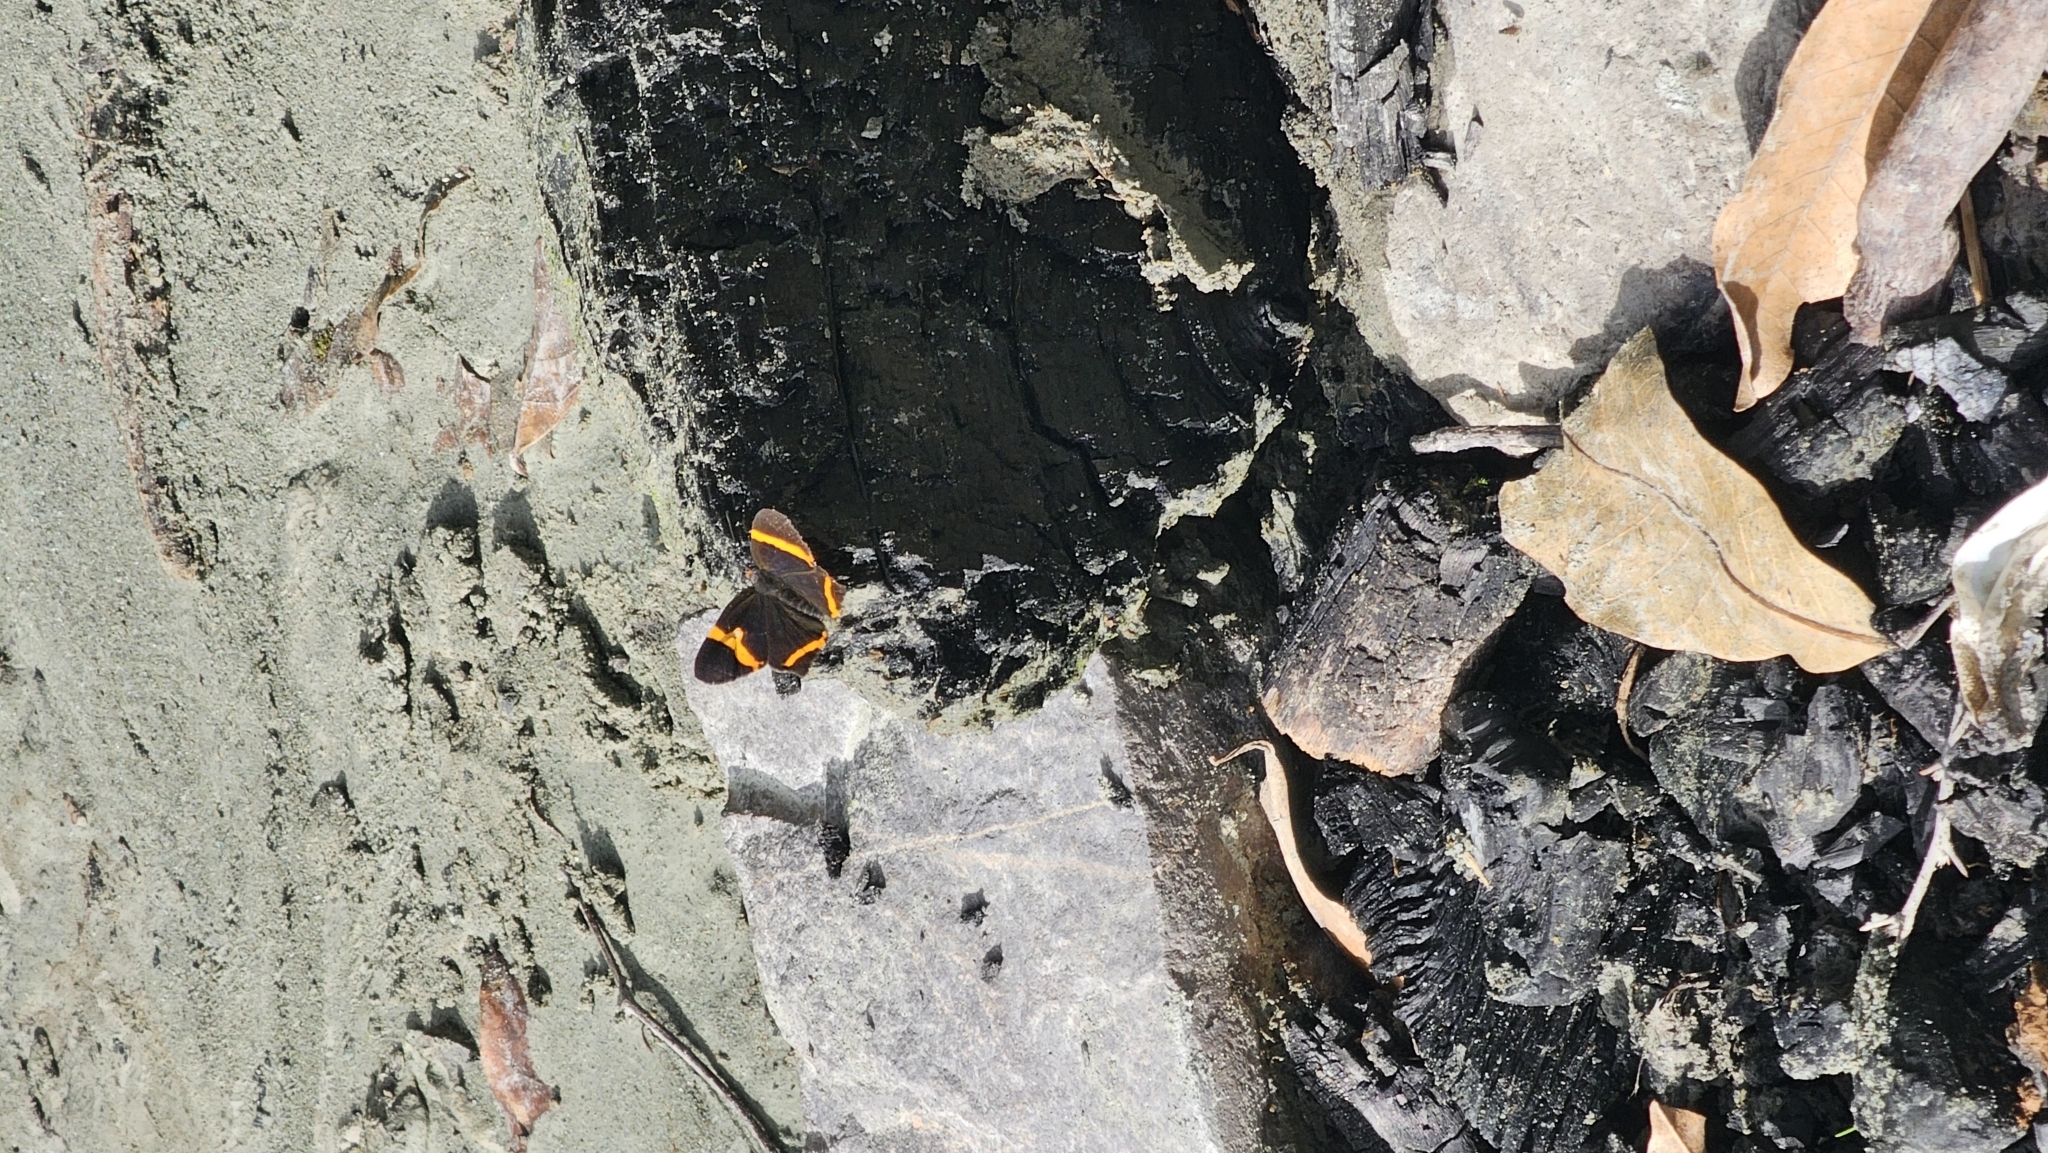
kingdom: Animalia
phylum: Arthropoda
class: Insecta
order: Lepidoptera
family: Riodinidae
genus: Riodina
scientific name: Riodina lysippoides
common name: Little dancer metalmark
